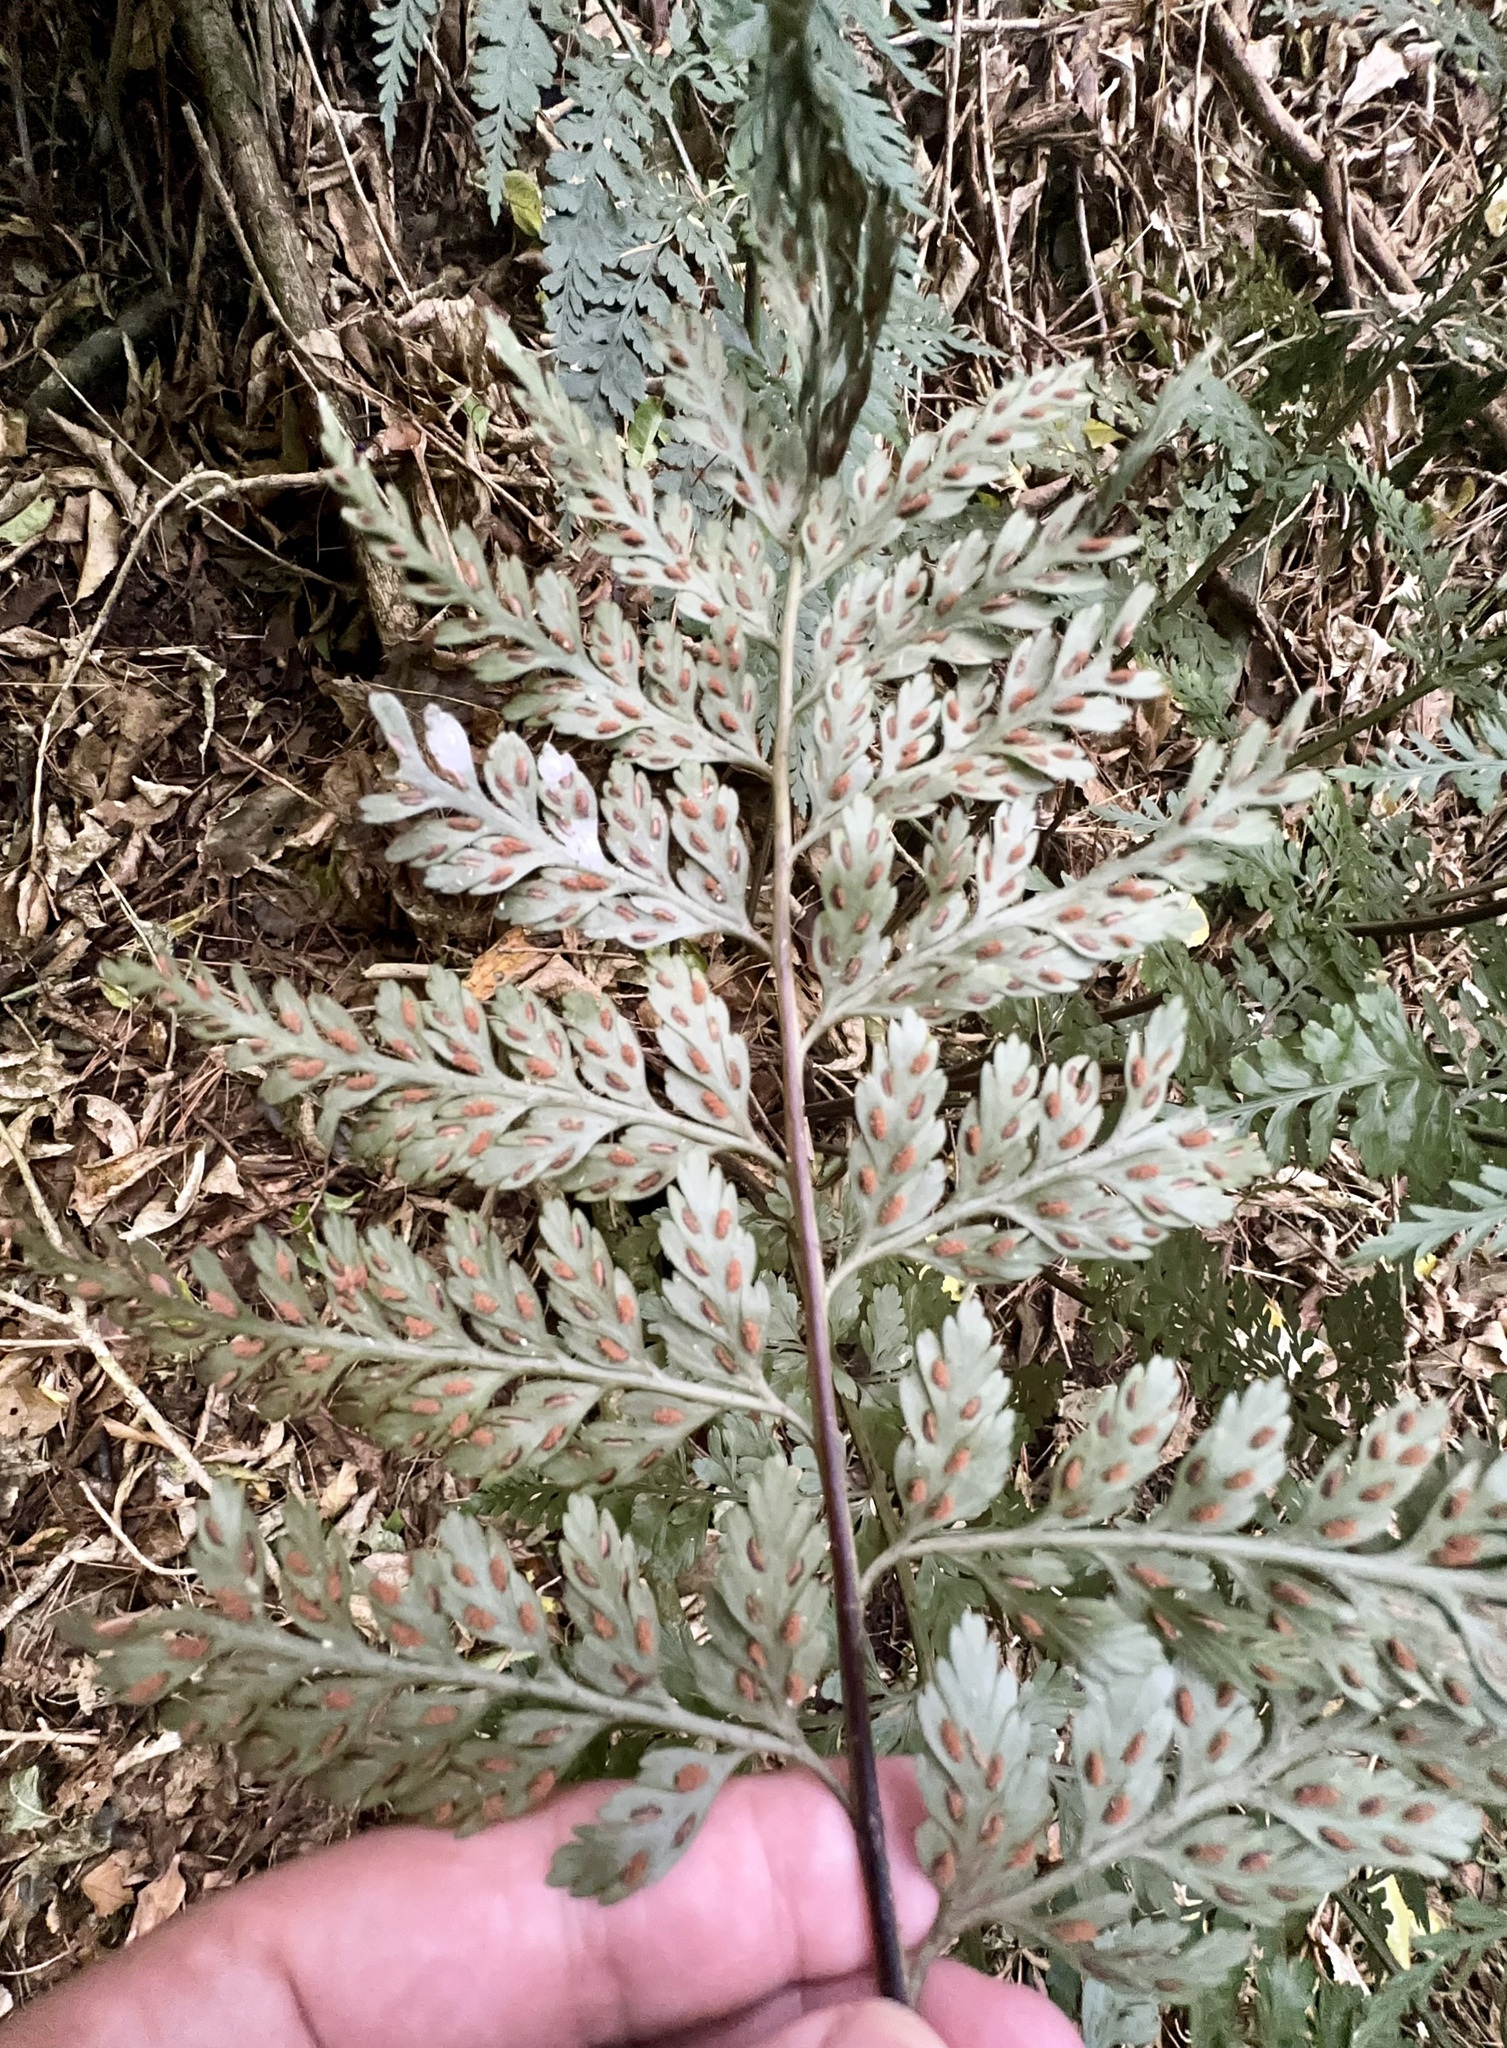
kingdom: Plantae
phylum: Tracheophyta
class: Polypodiopsida
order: Polypodiales
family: Aspleniaceae
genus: Asplenium
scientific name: Asplenium
